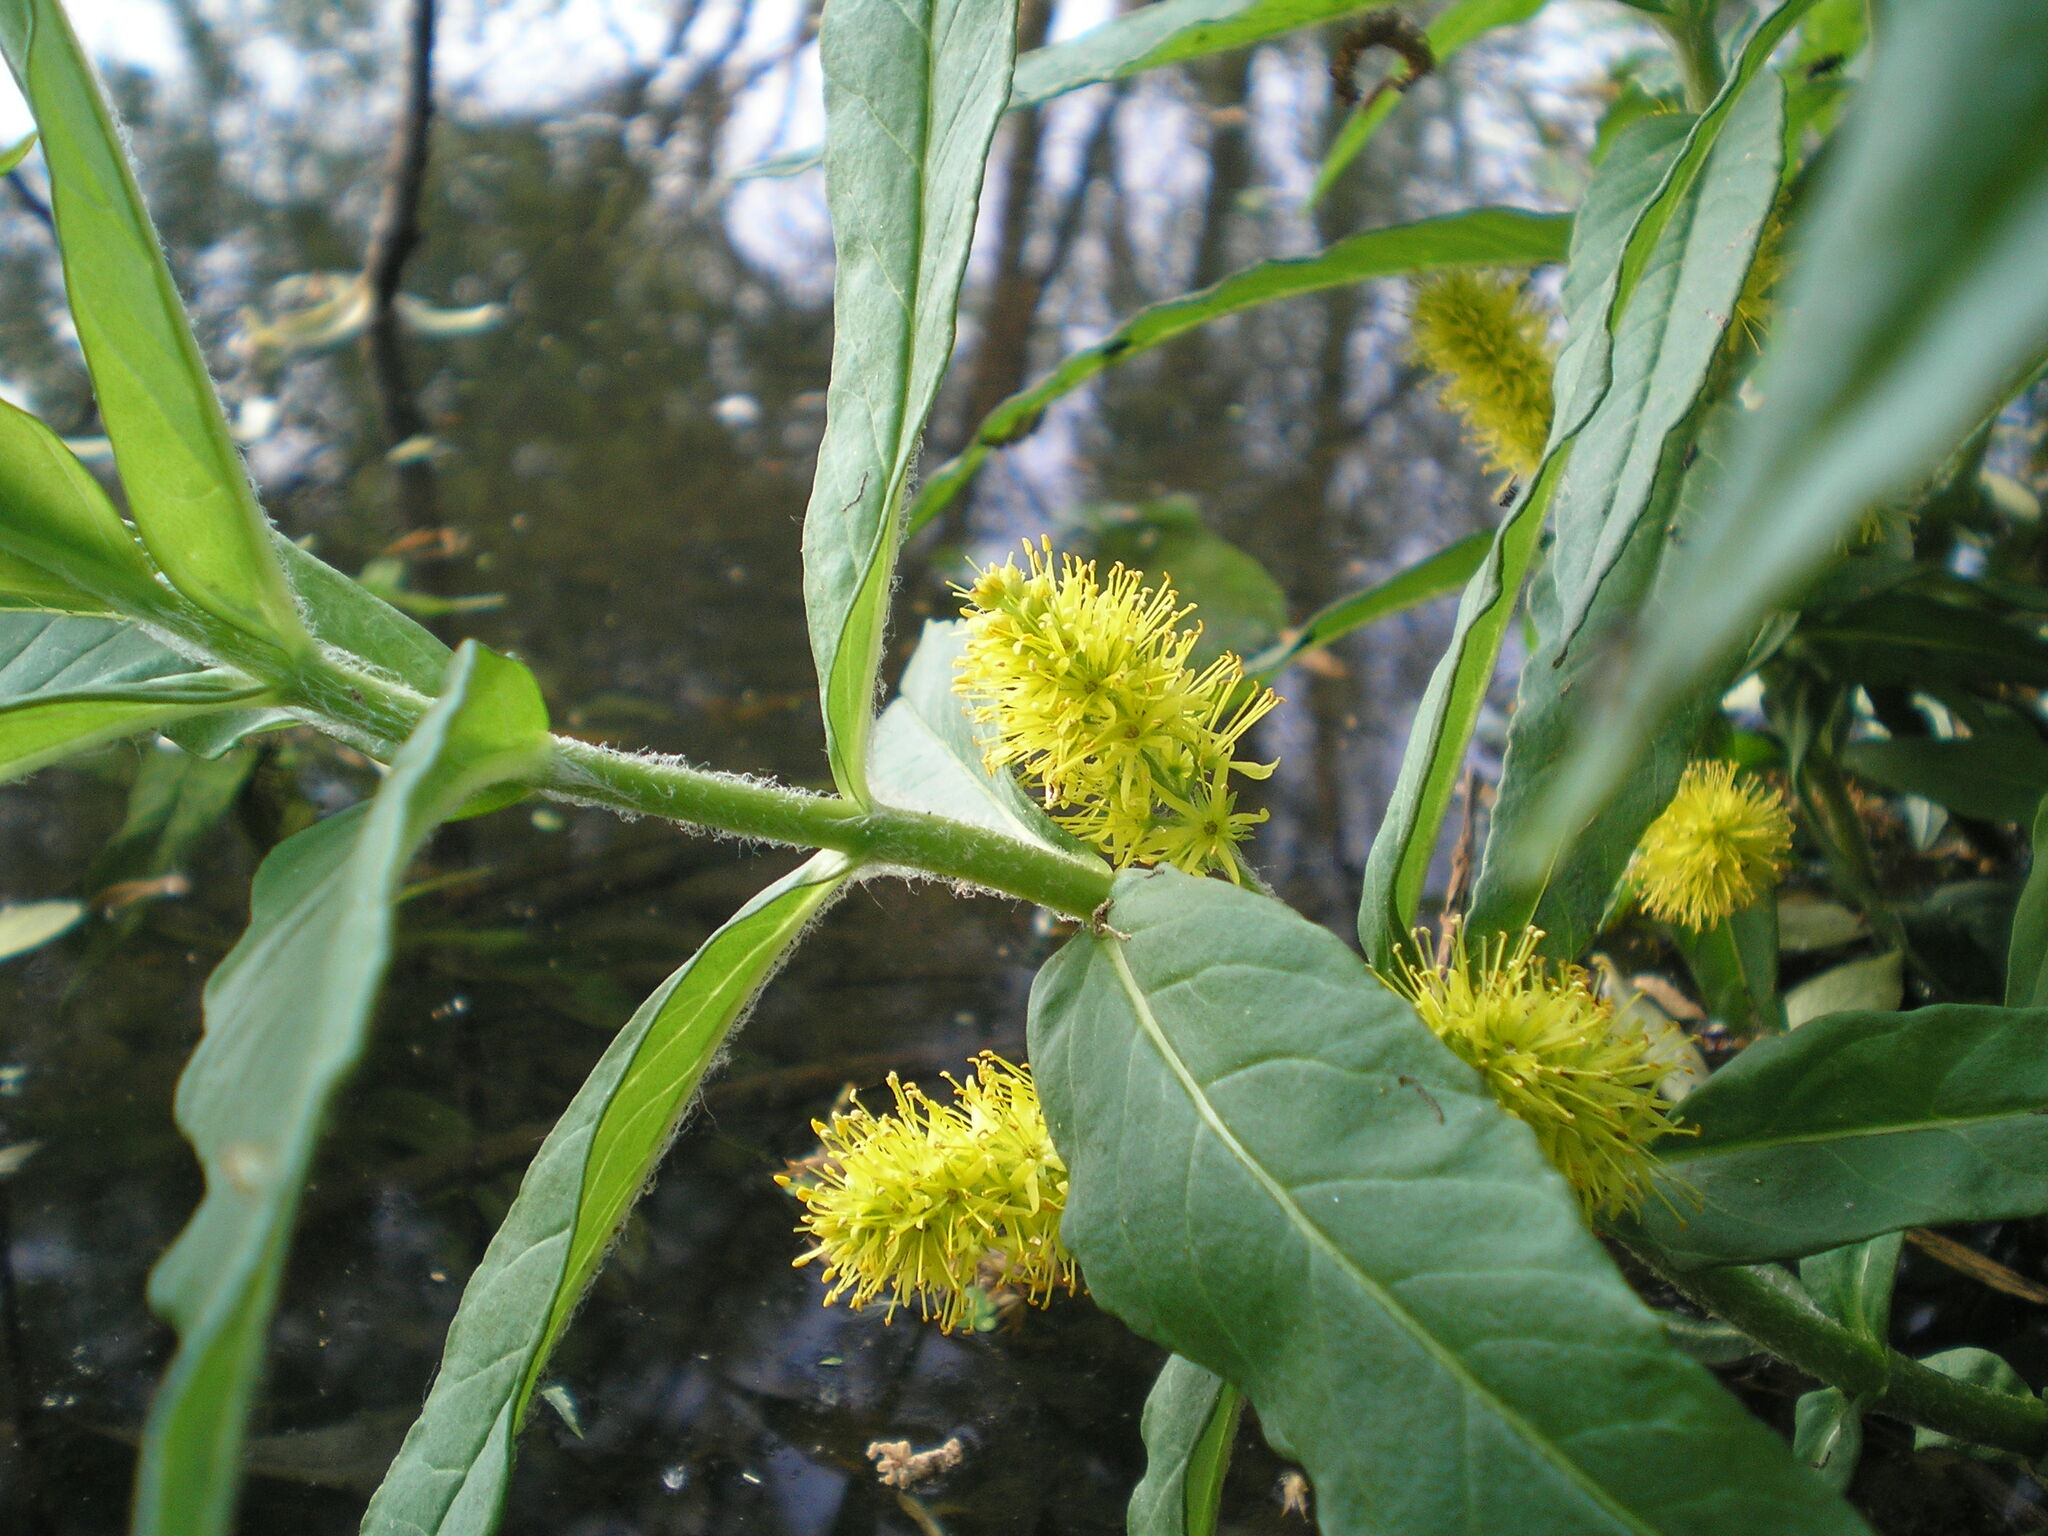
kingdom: Plantae
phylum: Tracheophyta
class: Magnoliopsida
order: Ericales
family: Primulaceae
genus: Lysimachia
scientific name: Lysimachia thyrsiflora
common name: Tufted loosestrife
